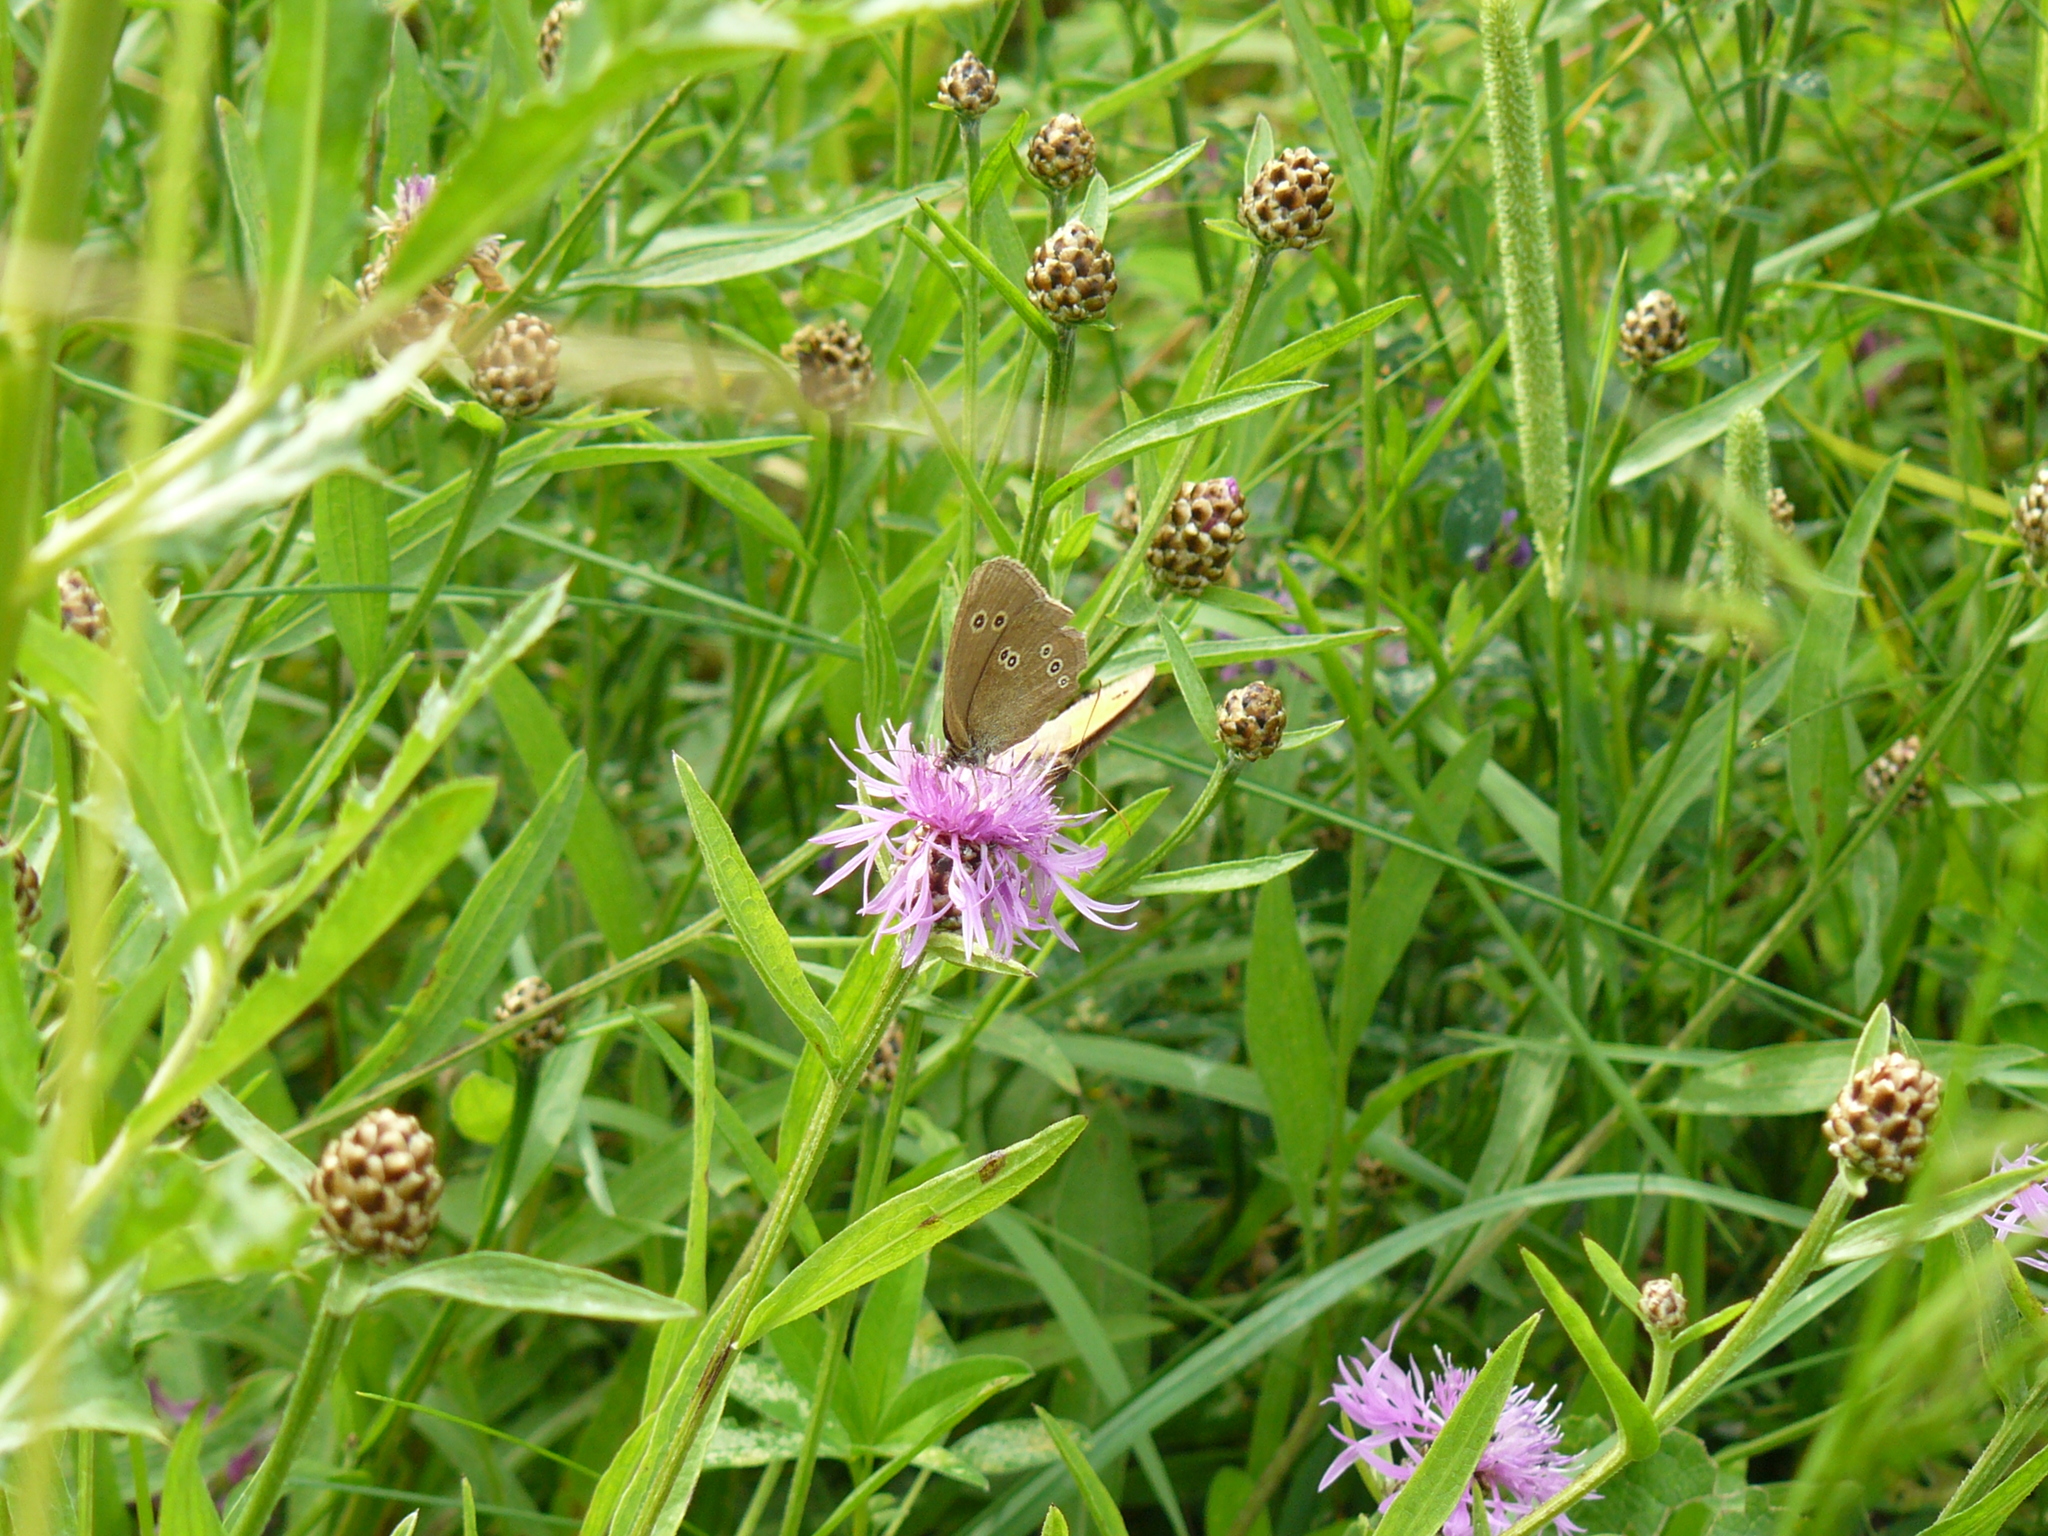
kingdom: Animalia
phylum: Arthropoda
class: Insecta
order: Lepidoptera
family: Nymphalidae
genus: Aphantopus
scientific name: Aphantopus hyperantus
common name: Ringlet
